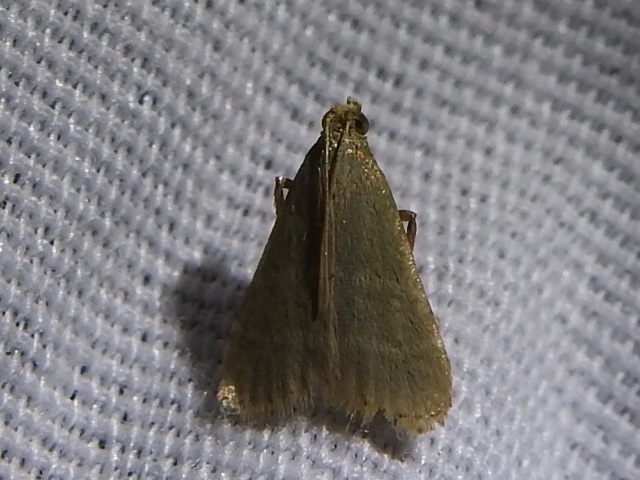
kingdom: Animalia
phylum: Arthropoda
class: Insecta
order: Lepidoptera
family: Pyralidae
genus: Arta
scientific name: Arta olivalis
